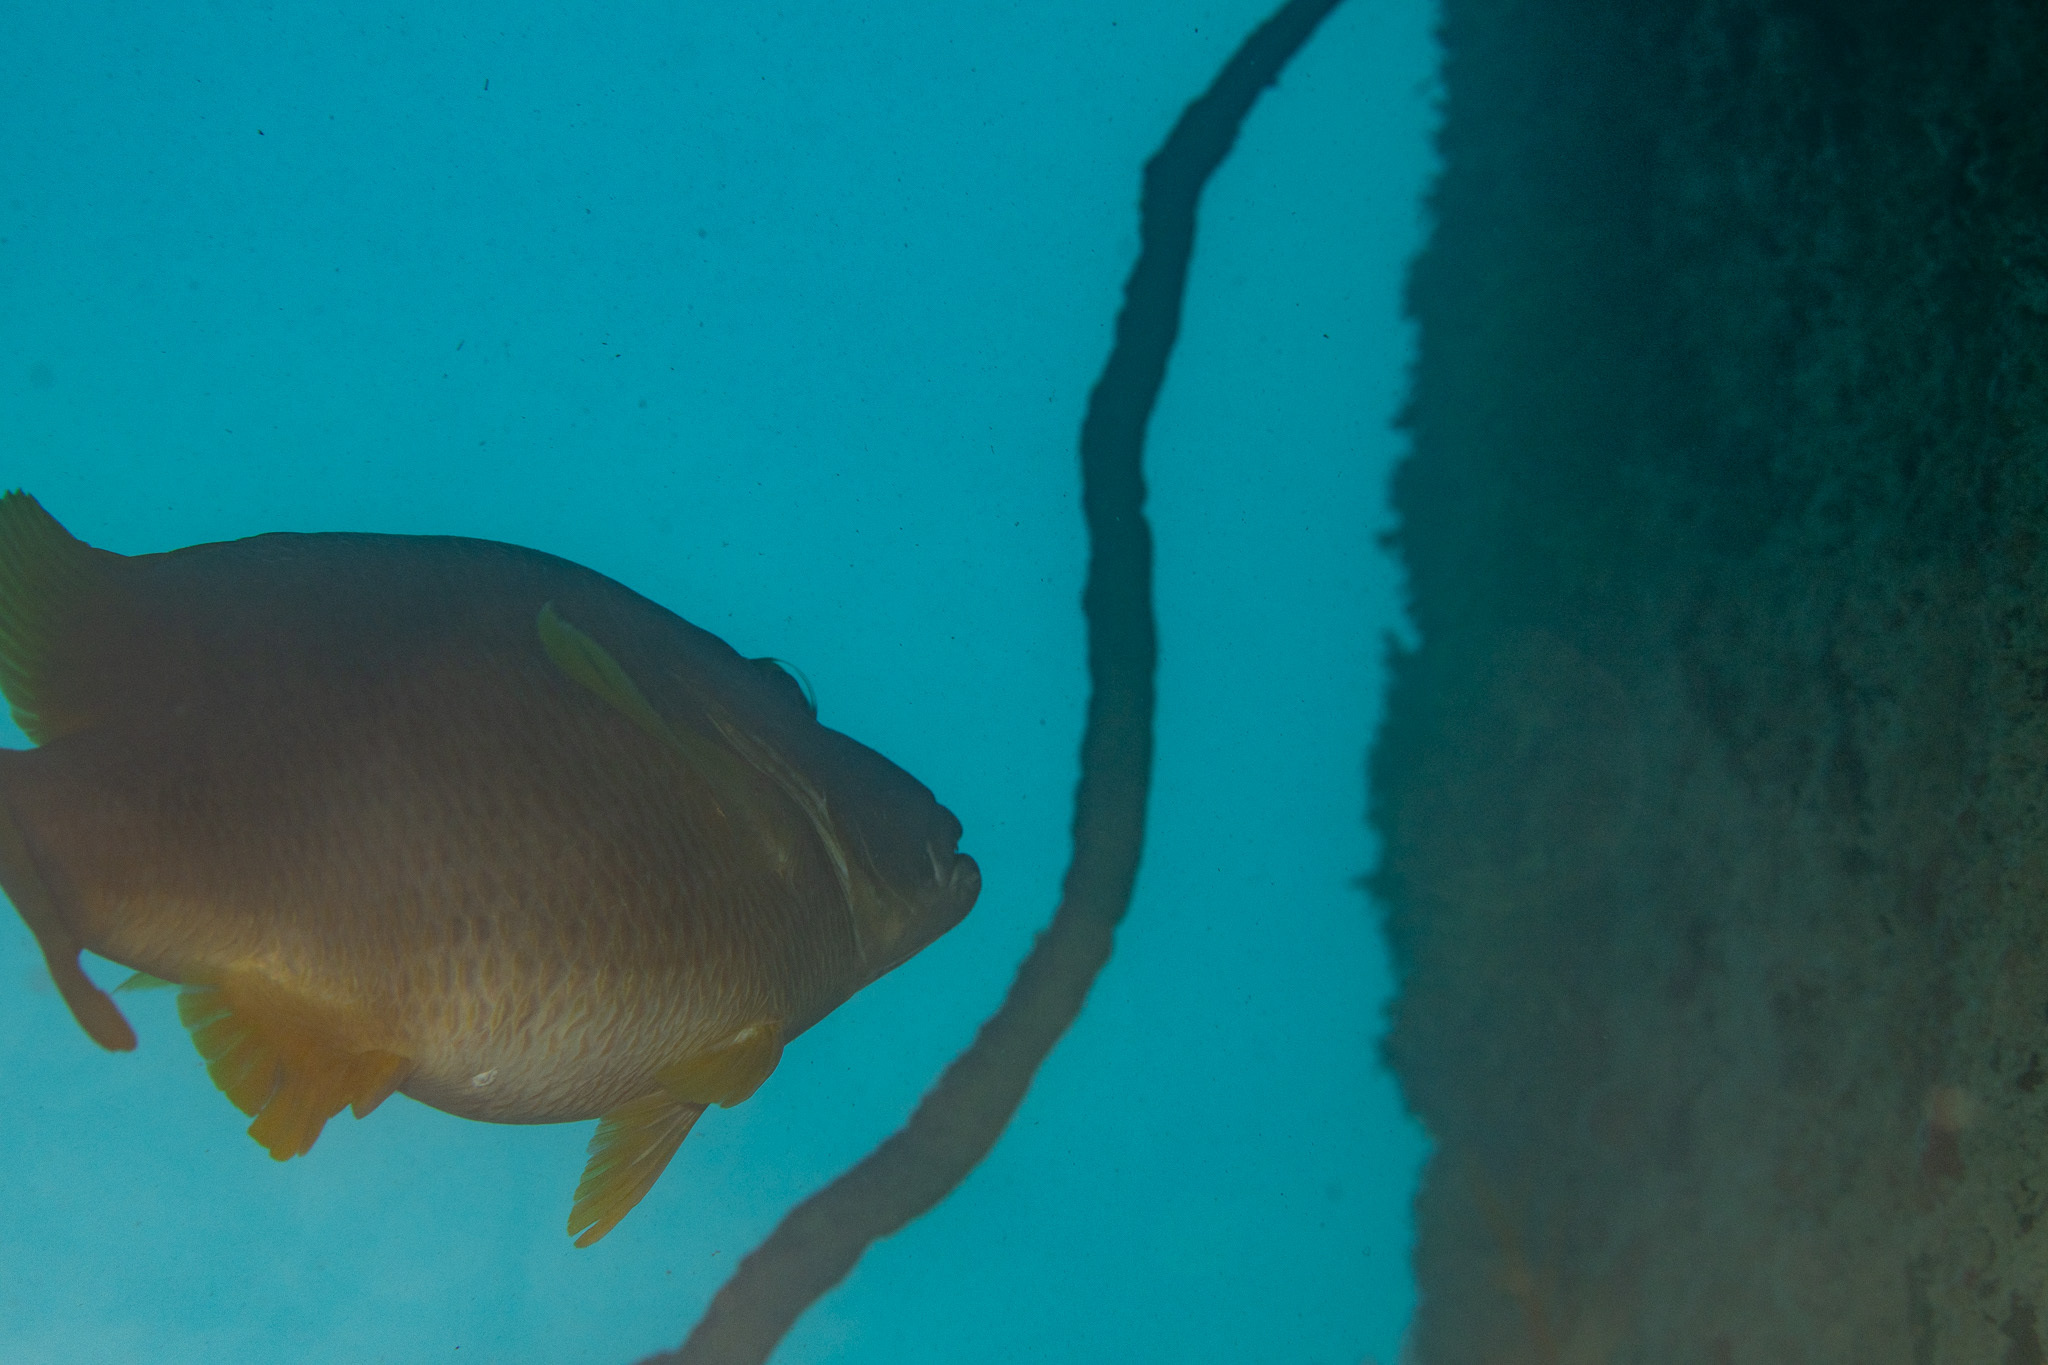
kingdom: Animalia
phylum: Chordata
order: Perciformes
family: Lutjanidae
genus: Lutjanus
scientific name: Lutjanus apodus
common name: Schoolmaster
